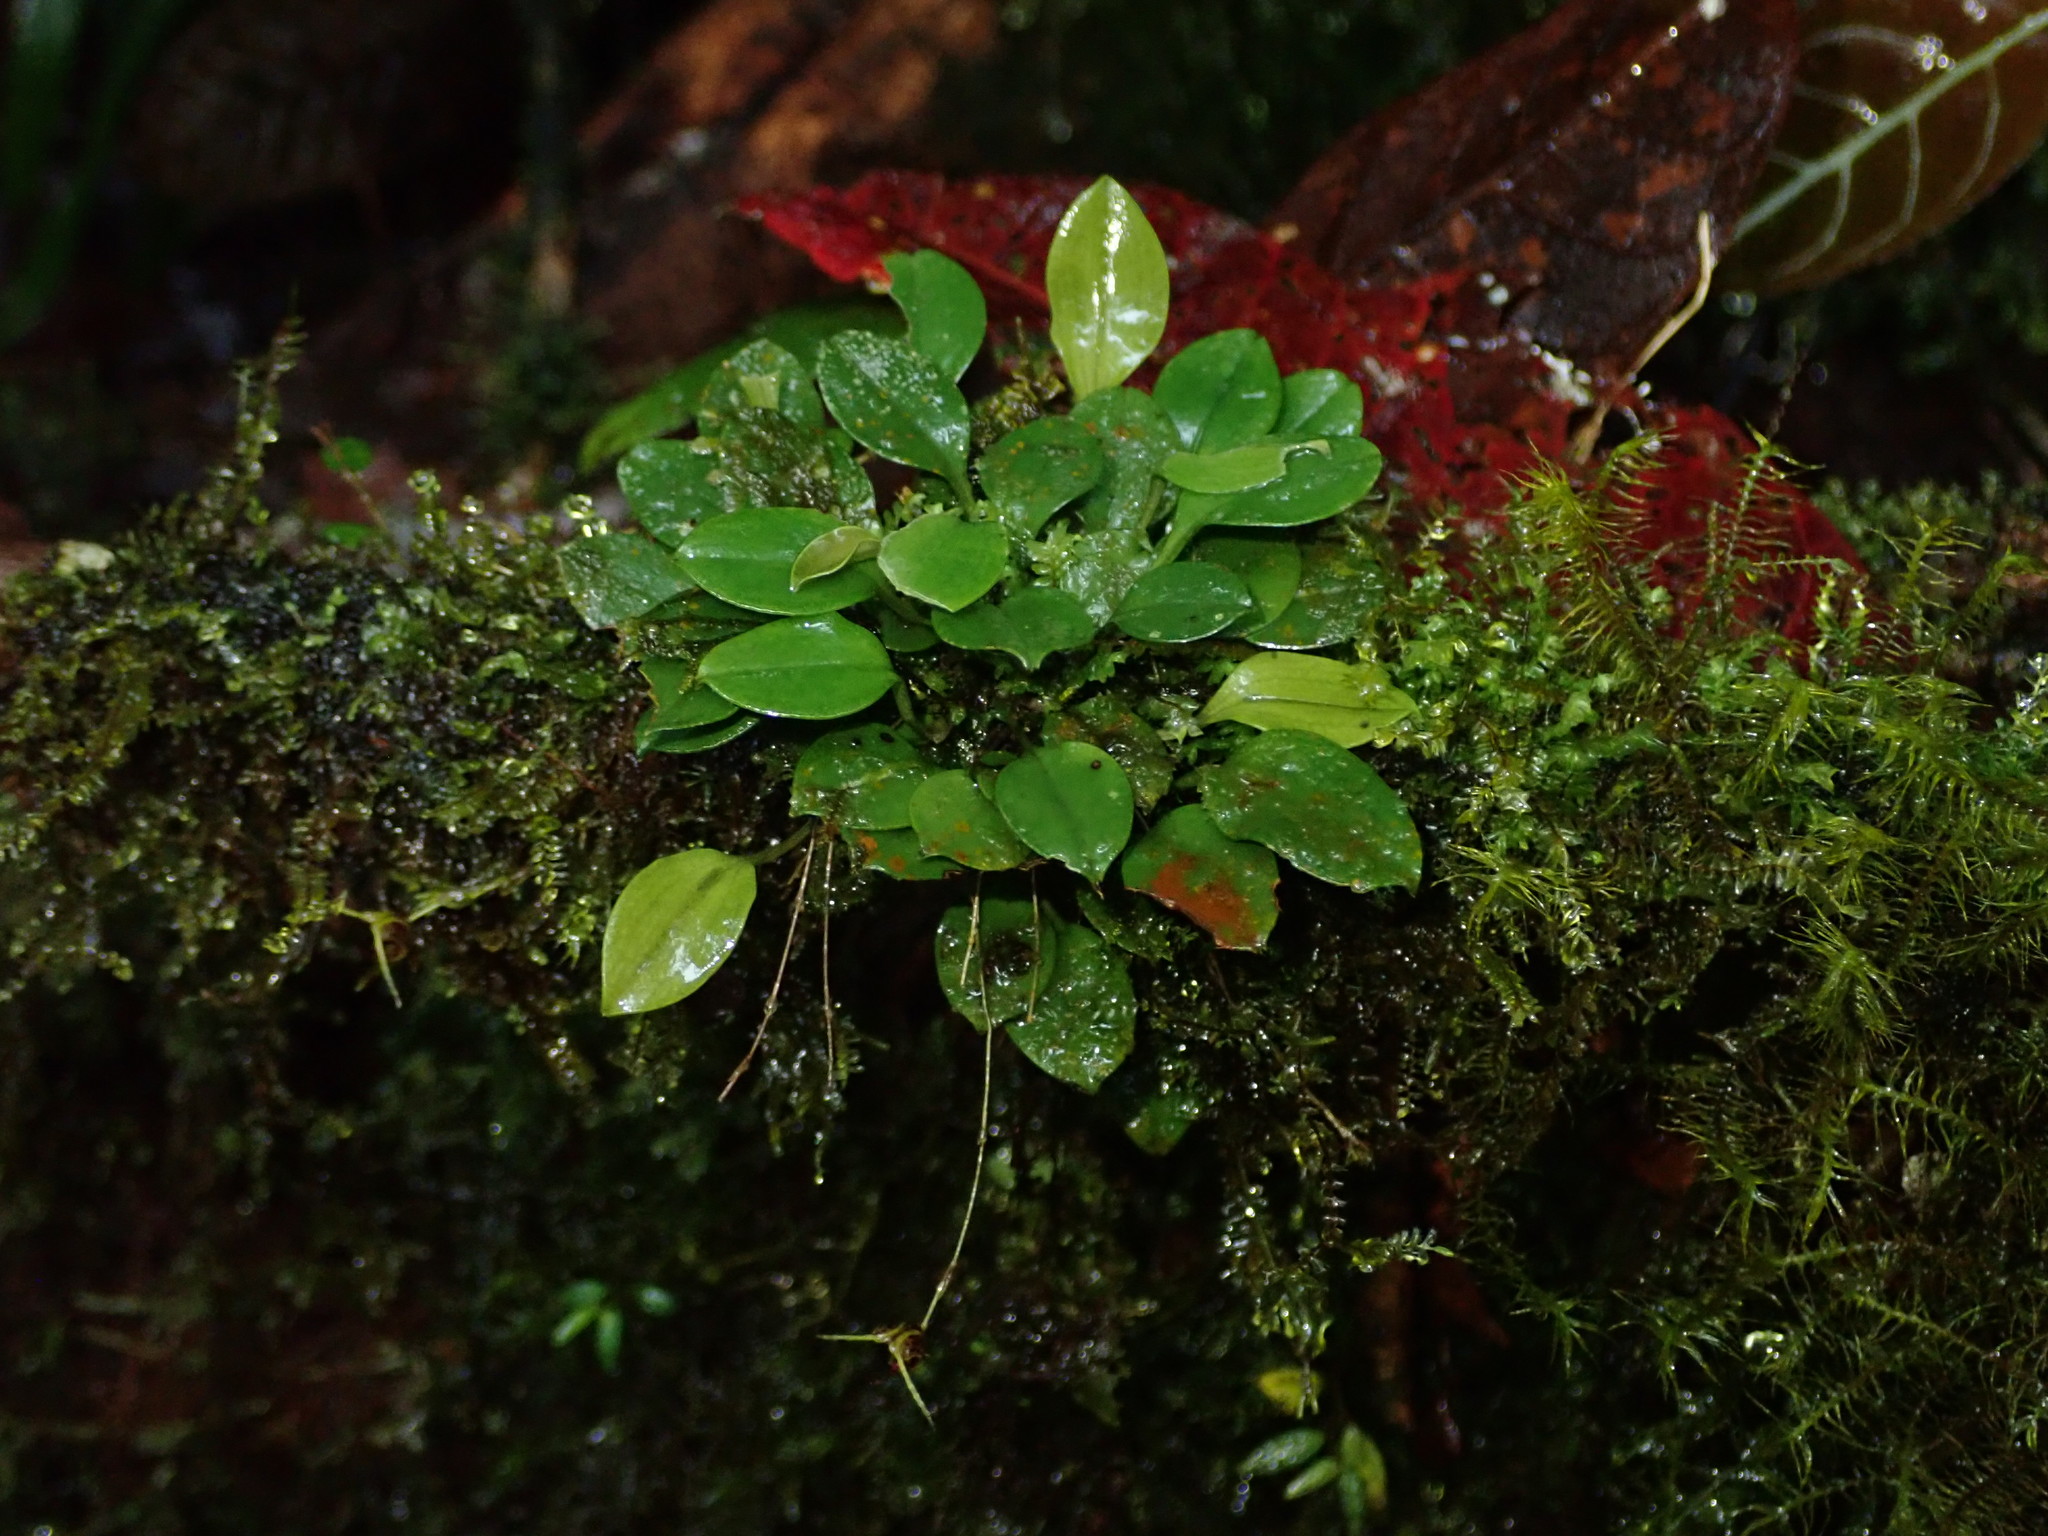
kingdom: Plantae
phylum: Tracheophyta
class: Liliopsida
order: Asparagales
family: Orchidaceae
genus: Scaphosepalum
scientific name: Scaphosepalum beluosum
